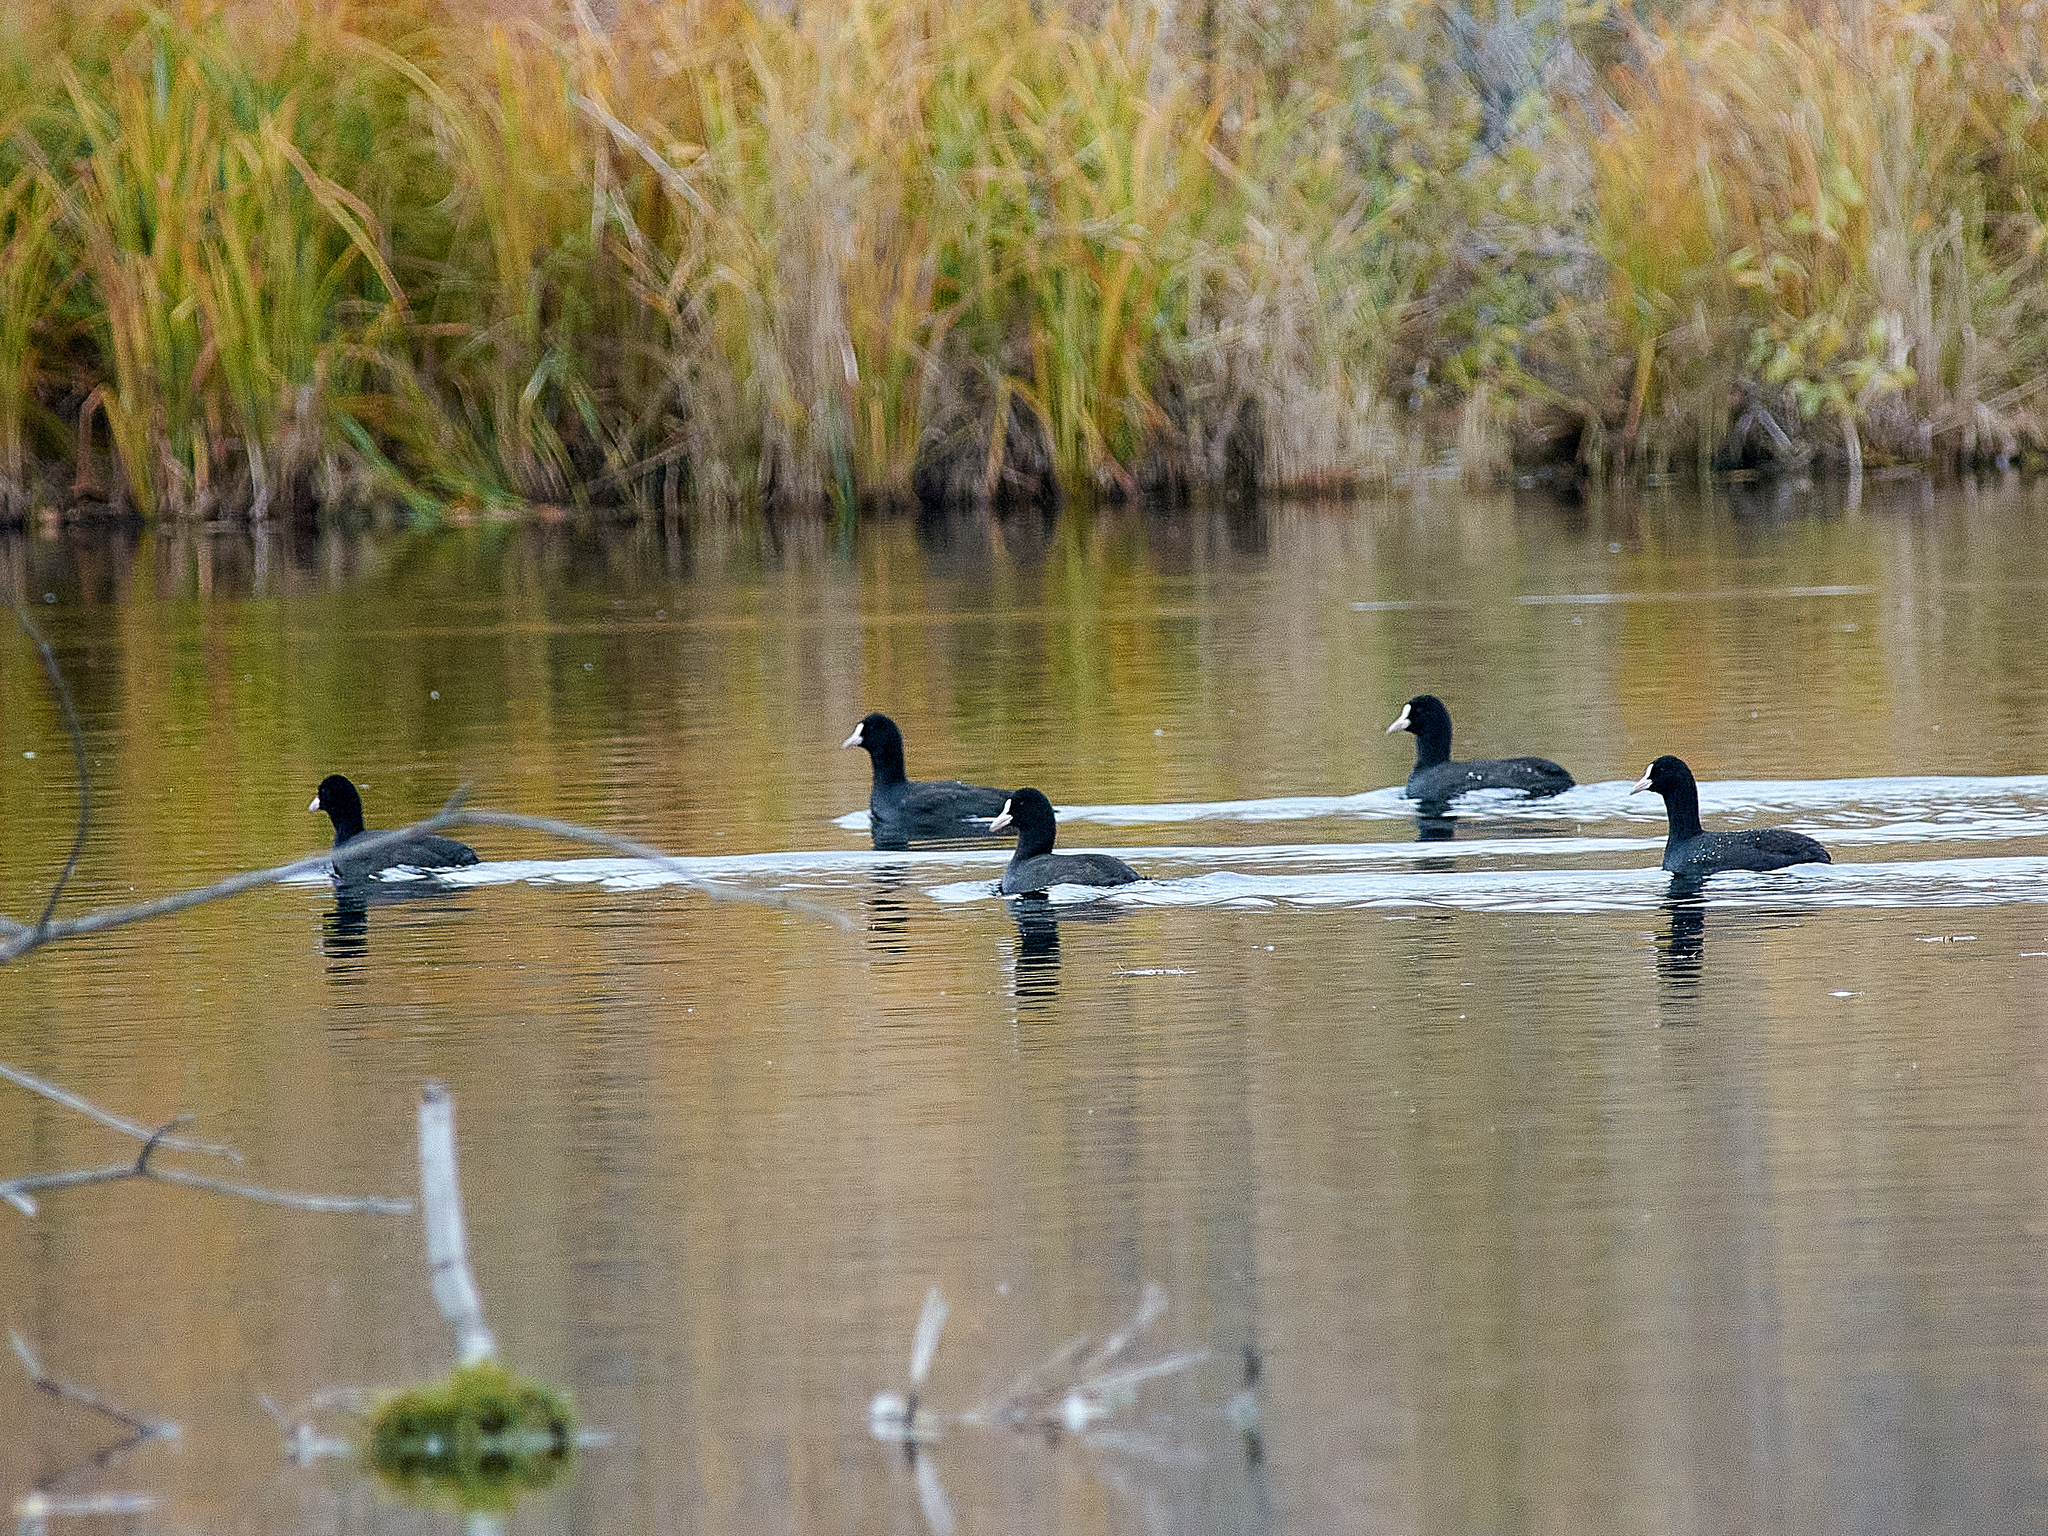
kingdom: Animalia
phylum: Chordata
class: Aves
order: Gruiformes
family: Rallidae
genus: Fulica
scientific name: Fulica atra
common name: Eurasian coot
